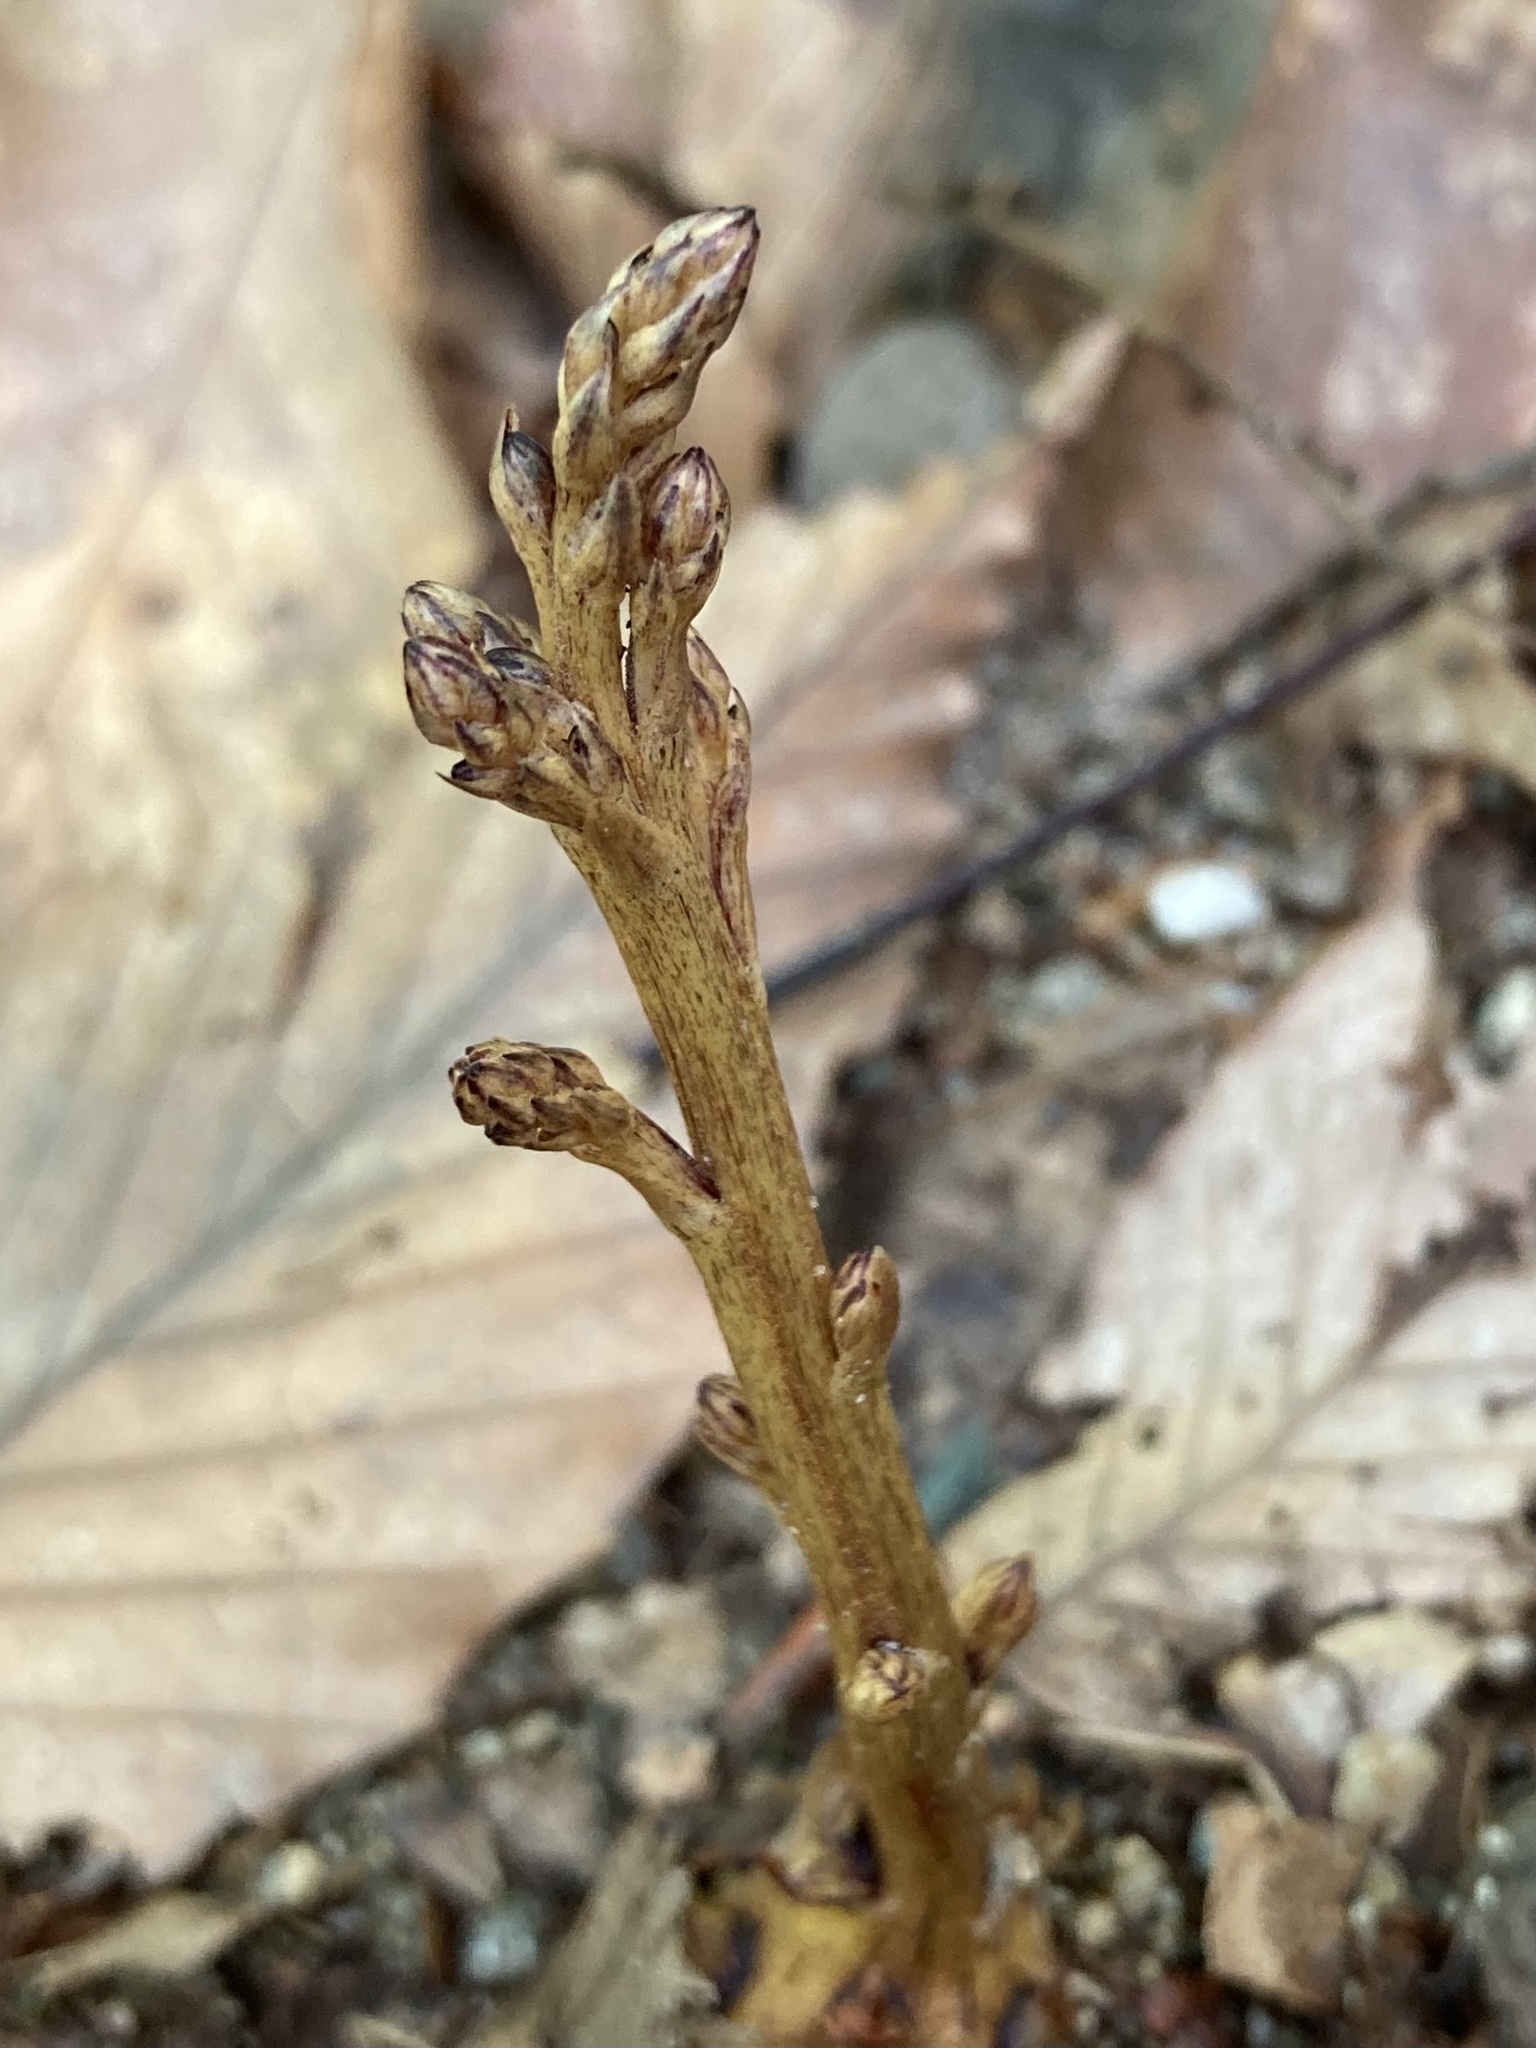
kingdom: Plantae
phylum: Tracheophyta
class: Magnoliopsida
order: Lamiales
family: Orobanchaceae
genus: Epifagus
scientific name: Epifagus virginiana
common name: Beechdrops
